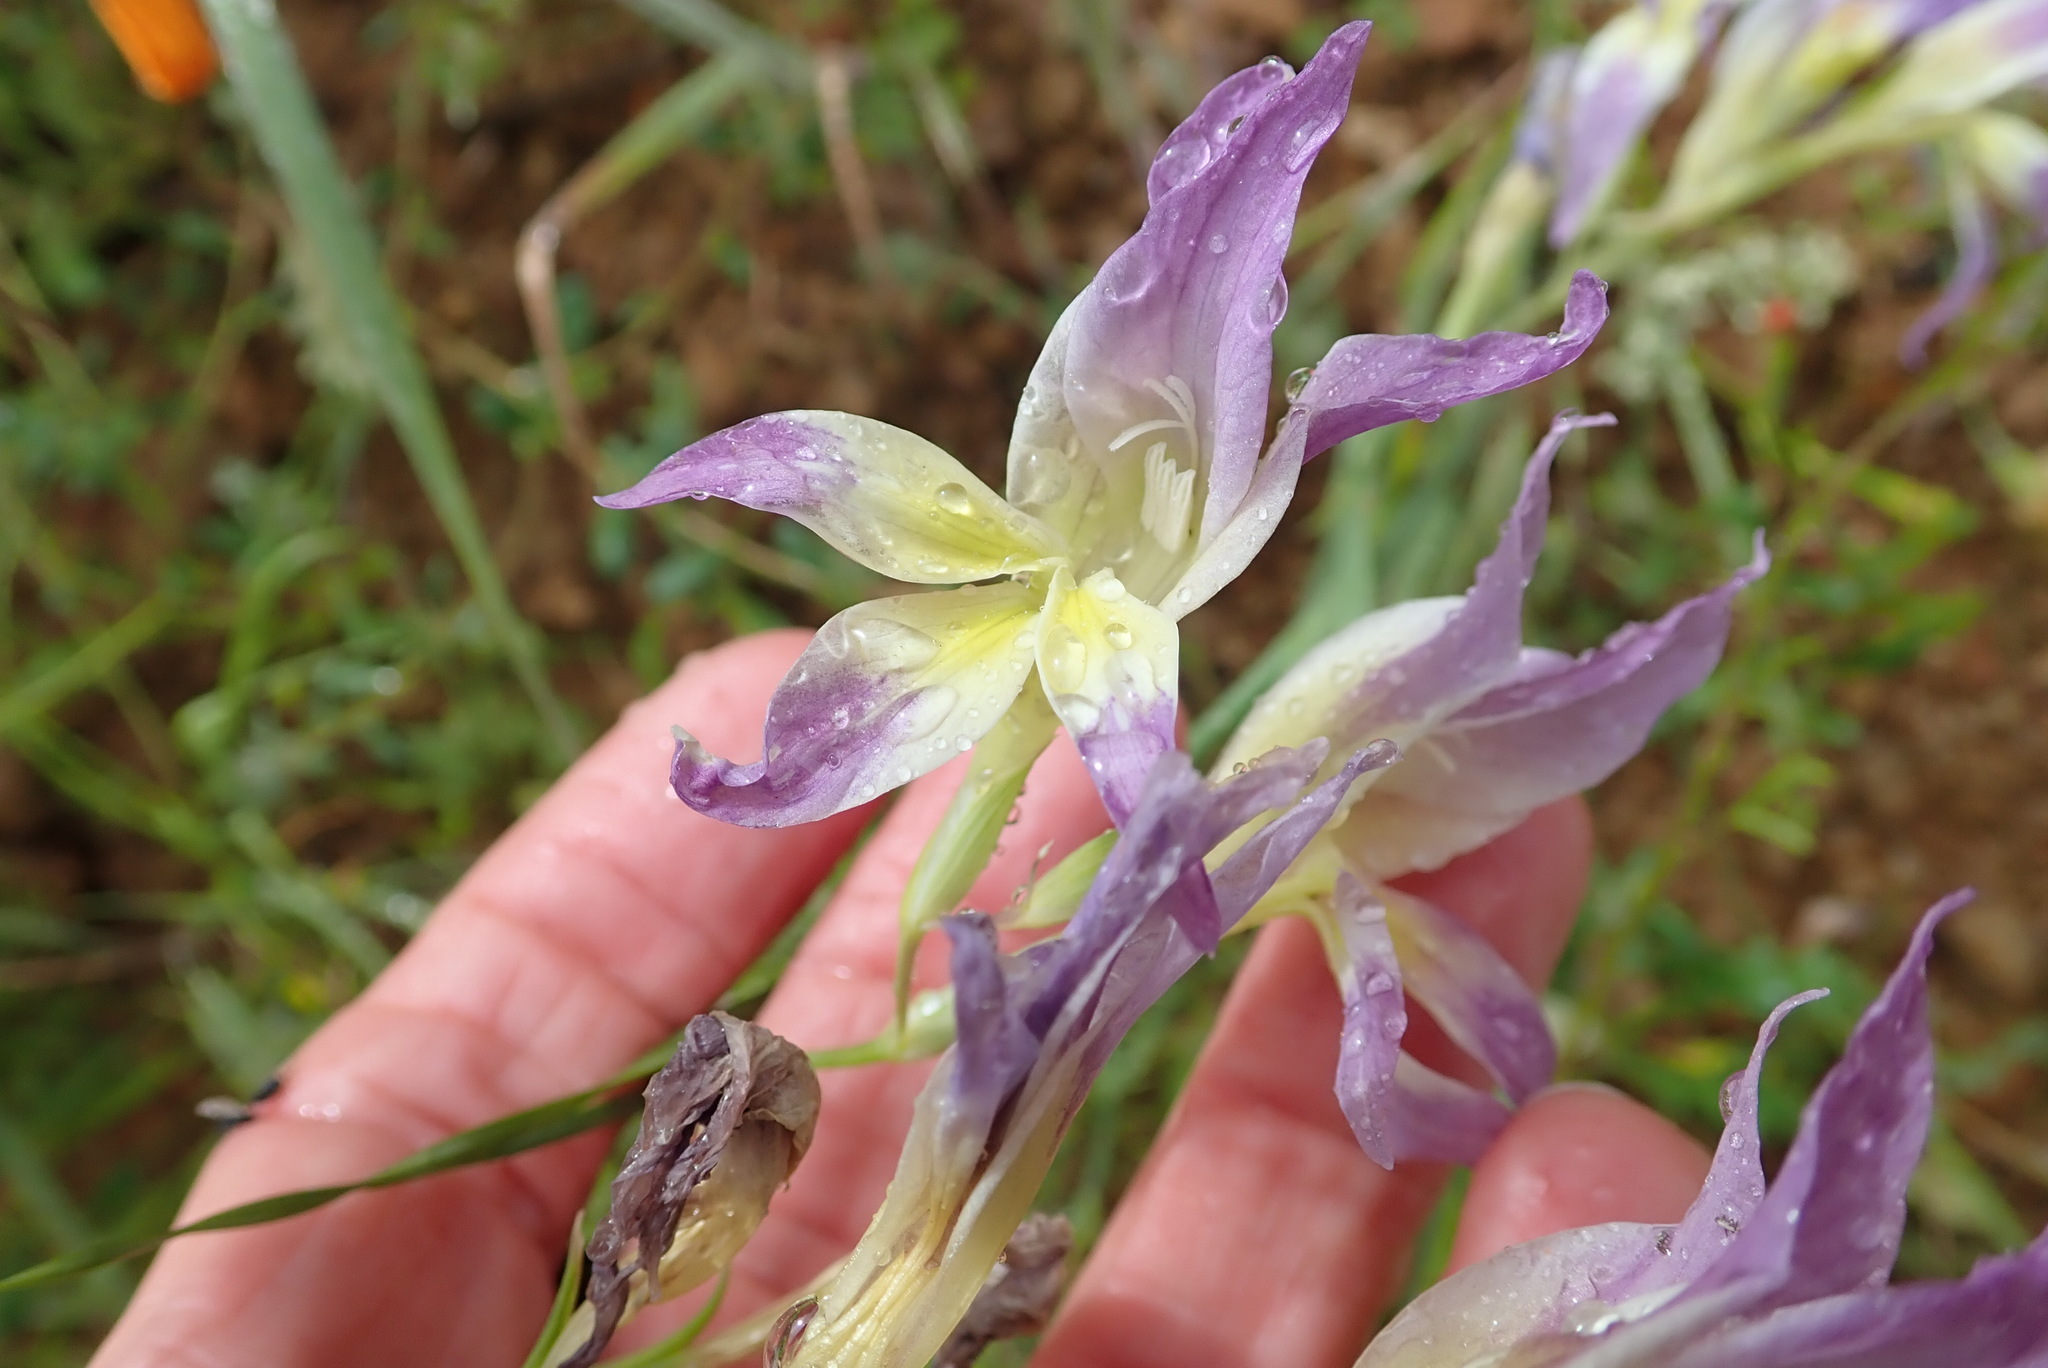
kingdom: Plantae
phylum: Tracheophyta
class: Liliopsida
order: Asparagales
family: Iridaceae
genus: Gladiolus
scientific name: Gladiolus venustus
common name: Purple kalkoentjie
